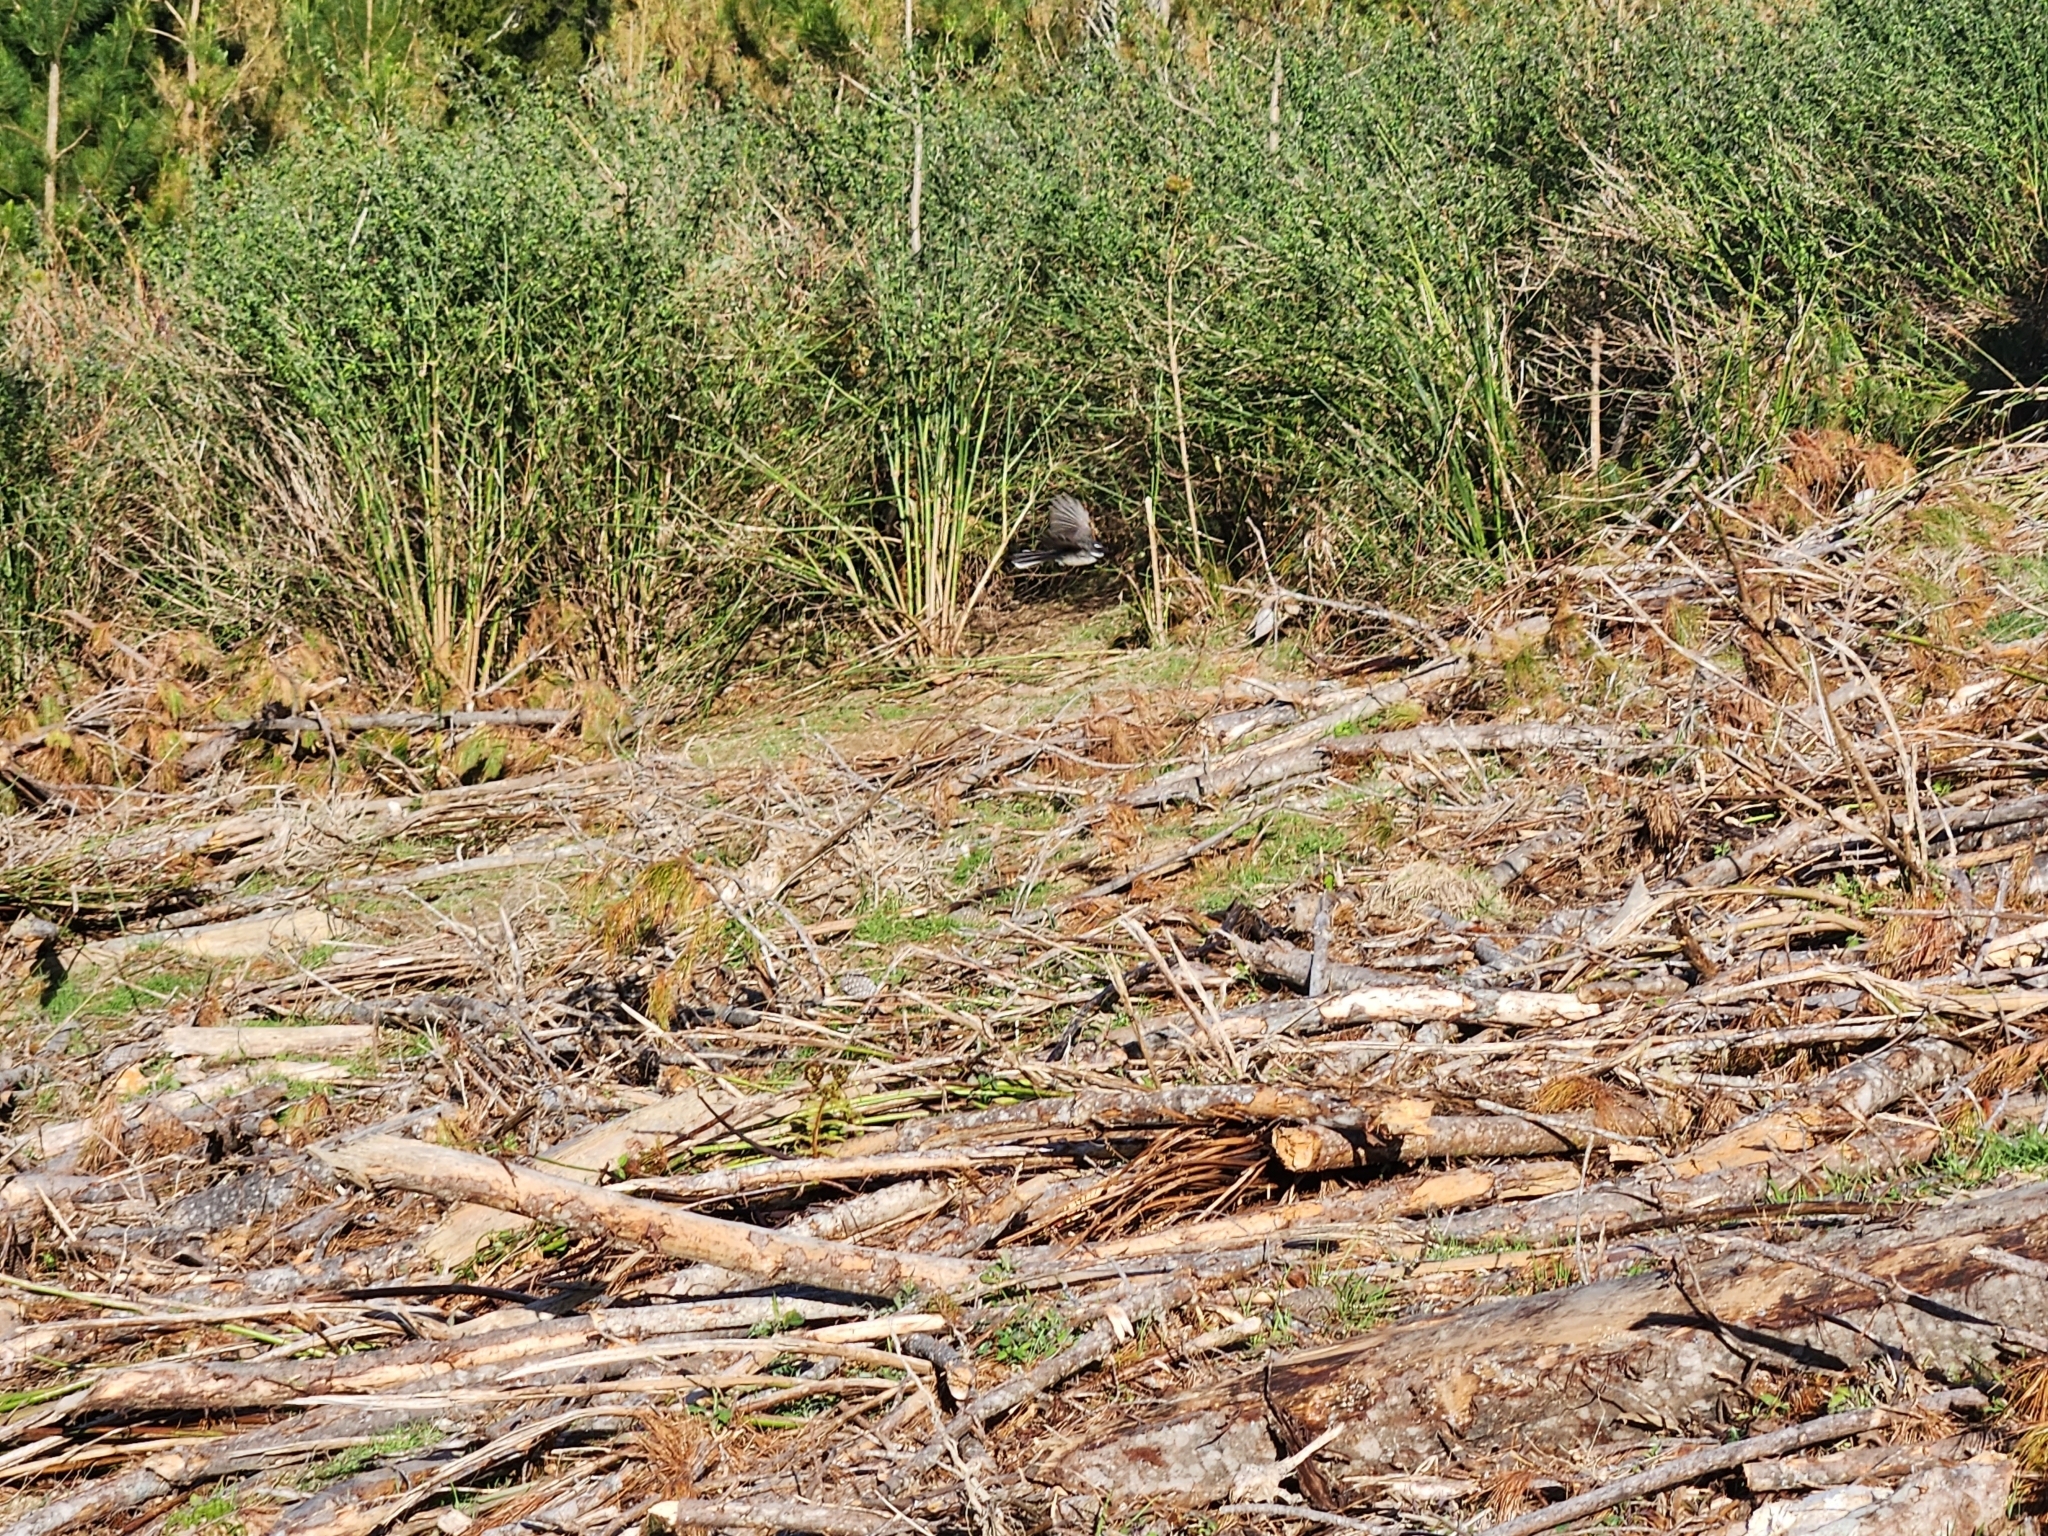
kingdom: Animalia
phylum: Chordata
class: Aves
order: Passeriformes
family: Rhipiduridae
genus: Rhipidura
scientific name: Rhipidura fuliginosa
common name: New zealand fantail
